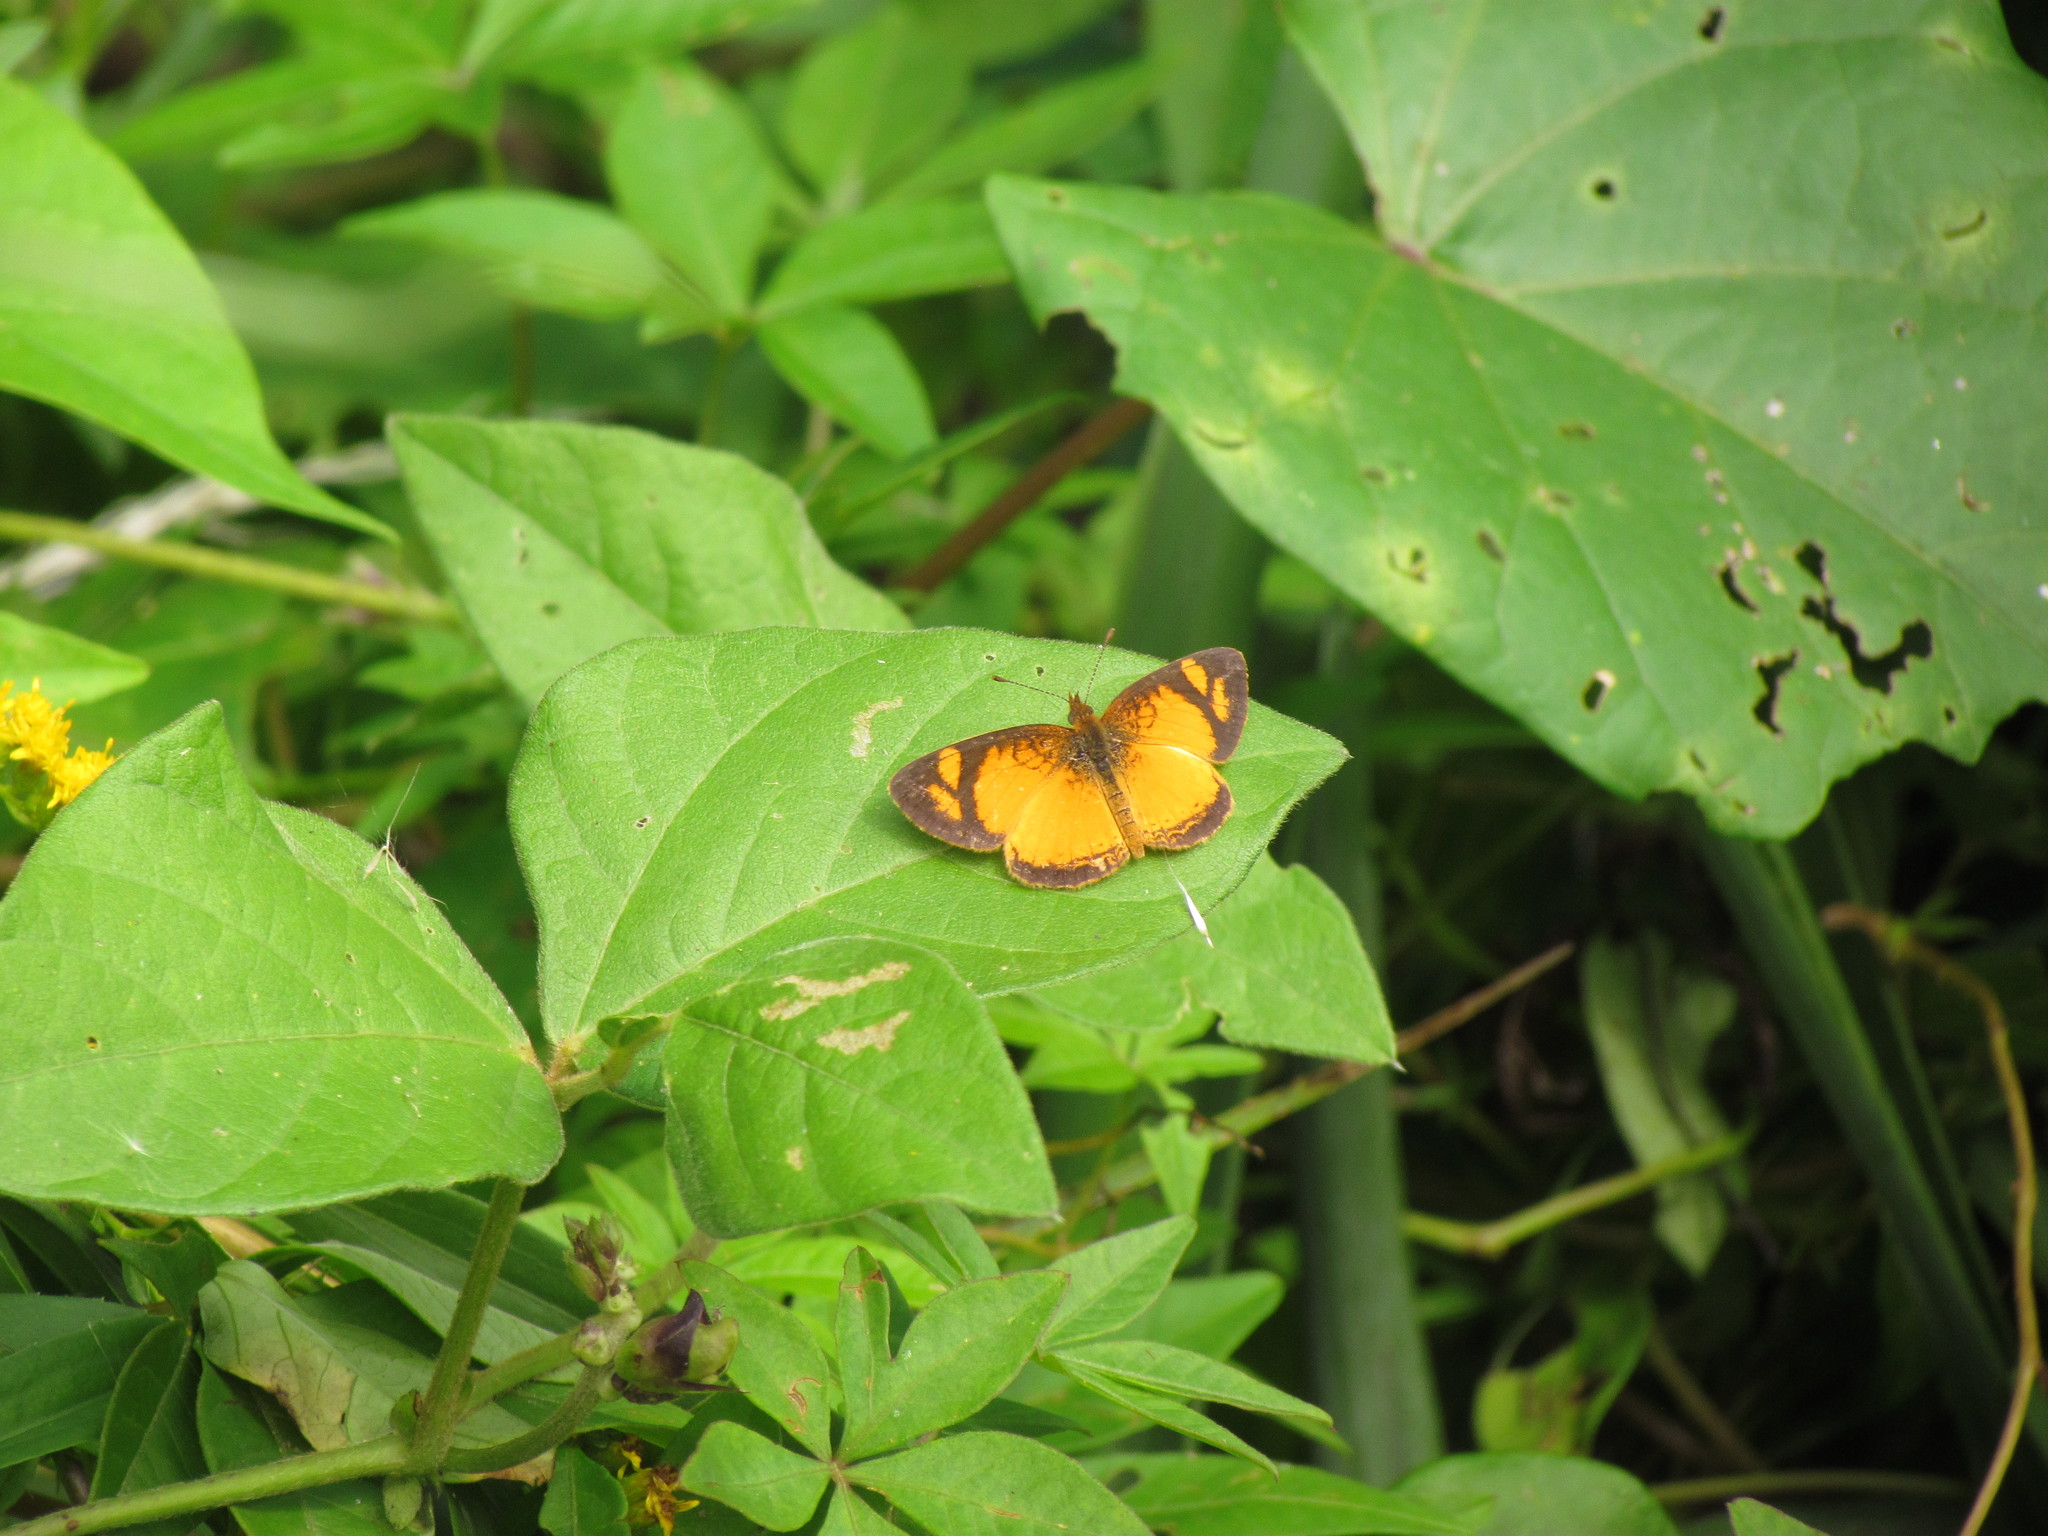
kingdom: Animalia
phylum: Arthropoda
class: Insecta
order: Lepidoptera
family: Nymphalidae
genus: Tegosa
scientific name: Tegosa claudina
